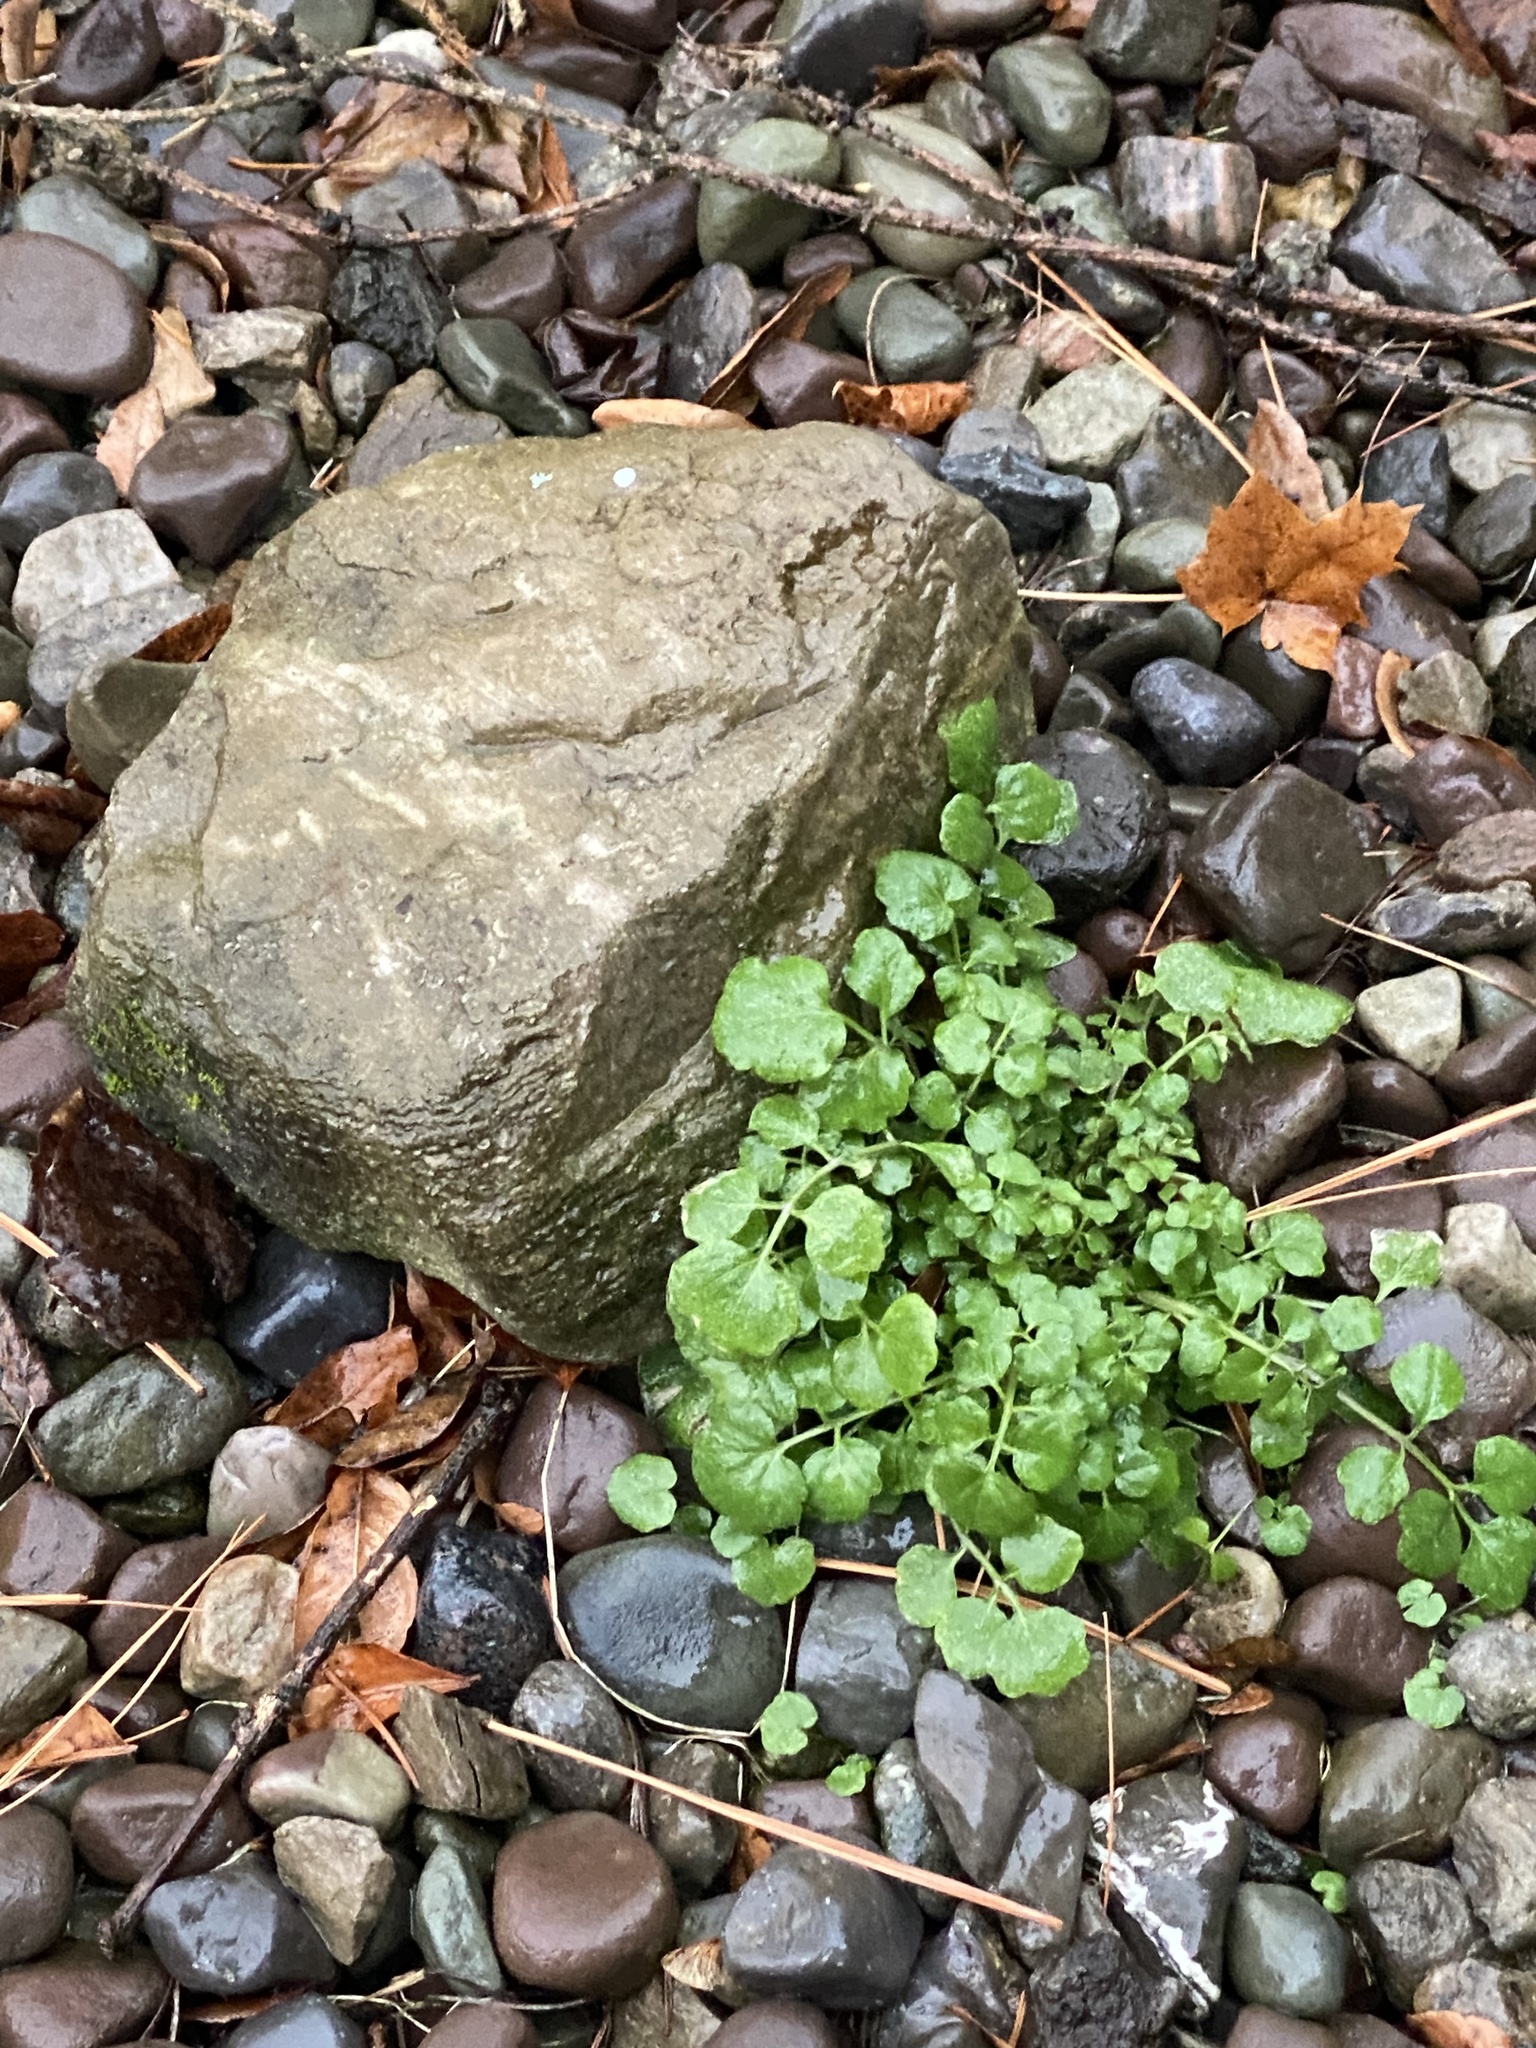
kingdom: Plantae
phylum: Tracheophyta
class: Magnoliopsida
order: Brassicales
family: Brassicaceae
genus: Cardamine
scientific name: Cardamine hirsuta
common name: Hairy bittercress
